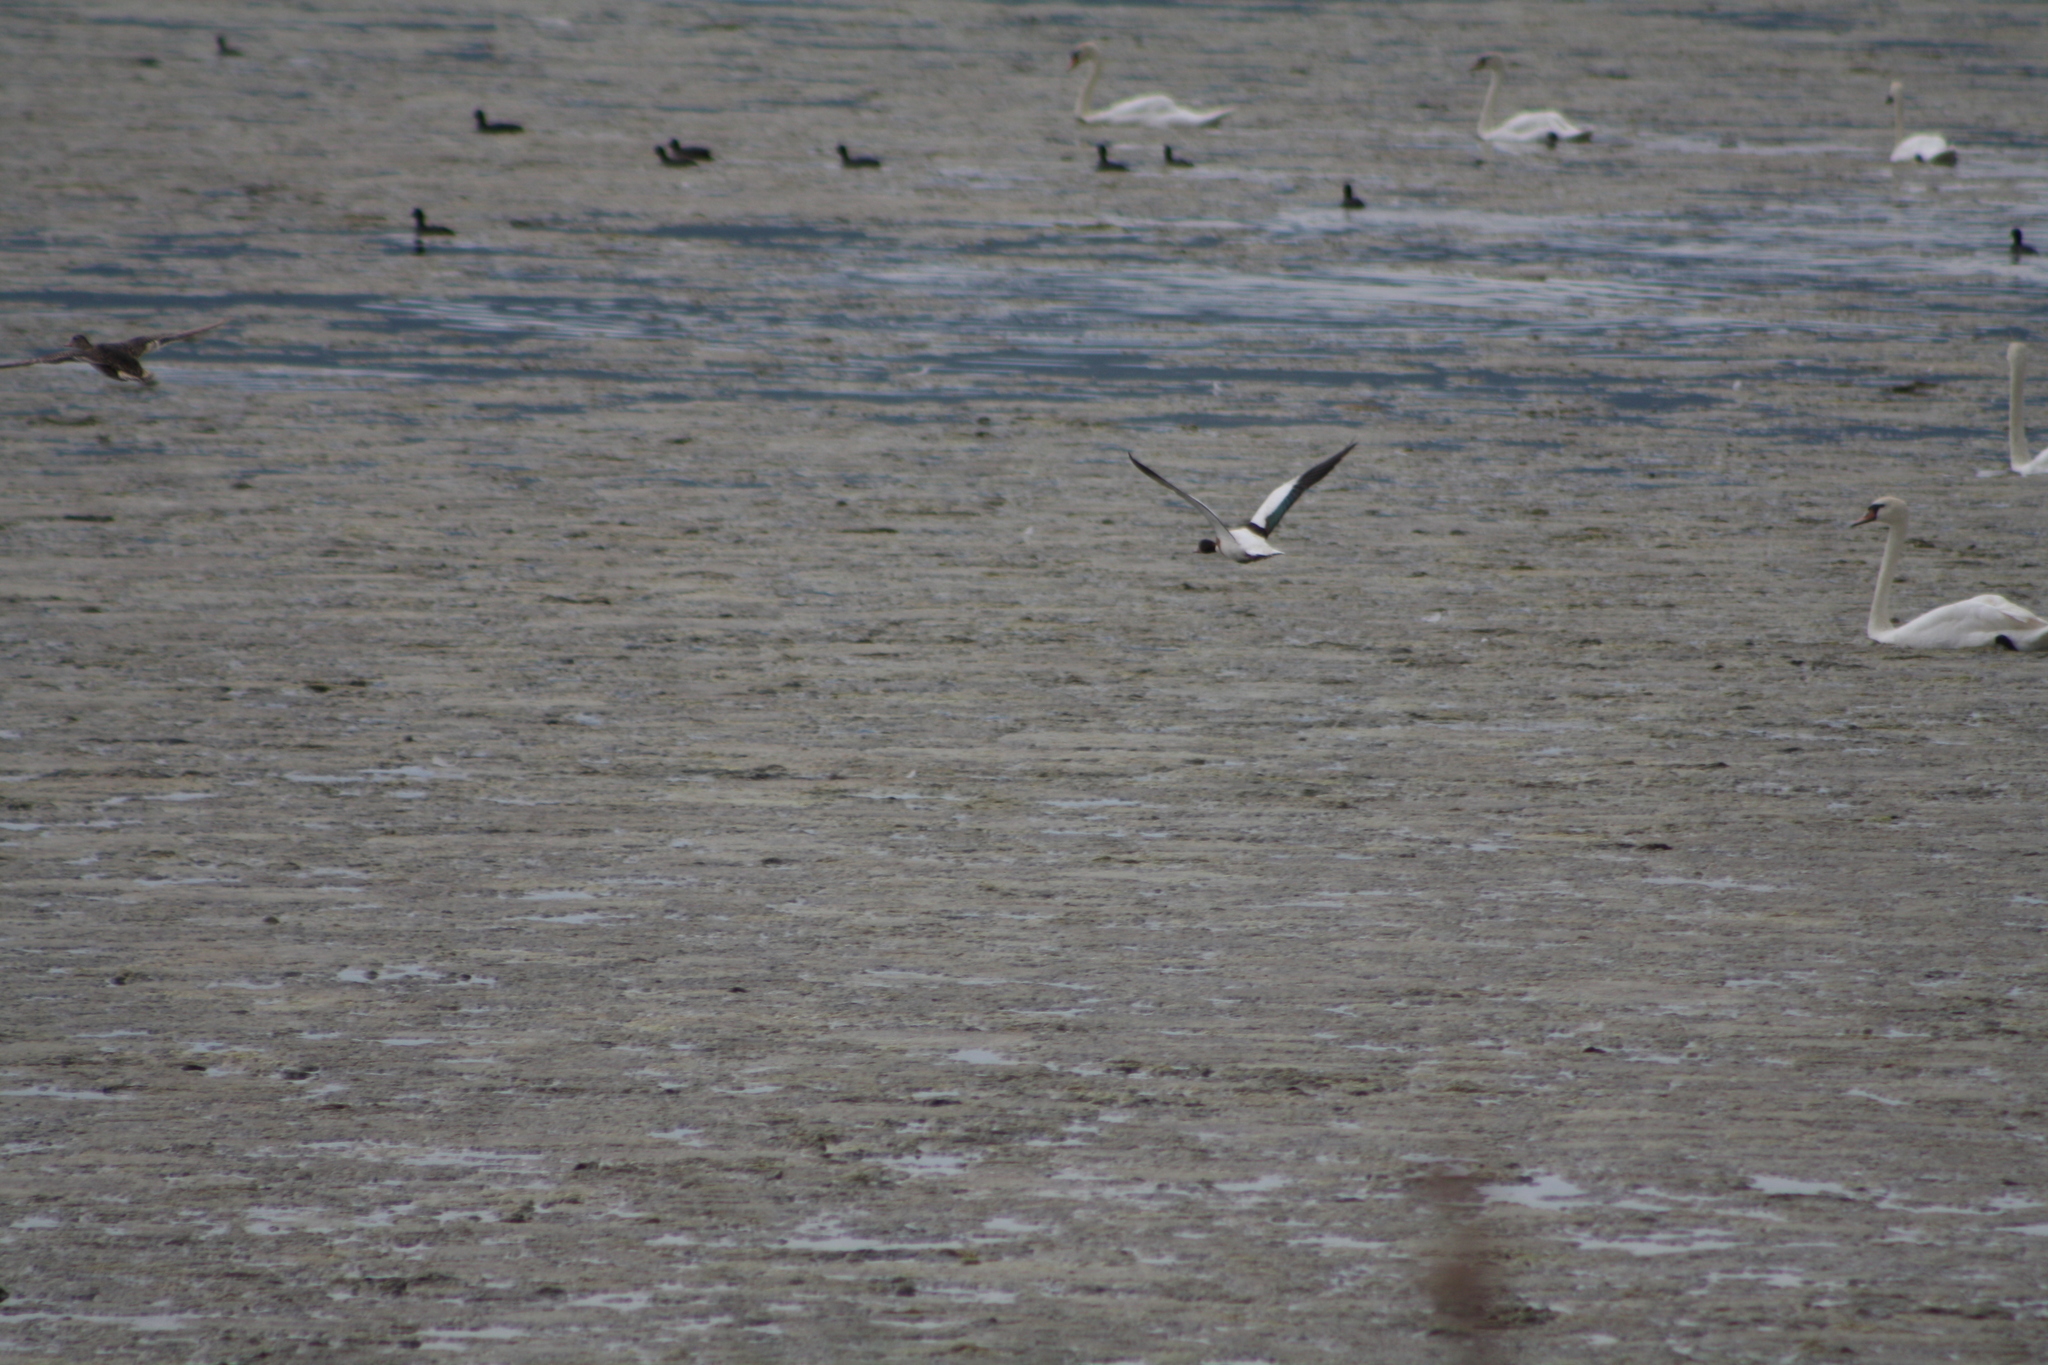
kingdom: Animalia
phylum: Chordata
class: Aves
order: Anseriformes
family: Anatidae
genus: Tadorna
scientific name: Tadorna tadorna
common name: Common shelduck
